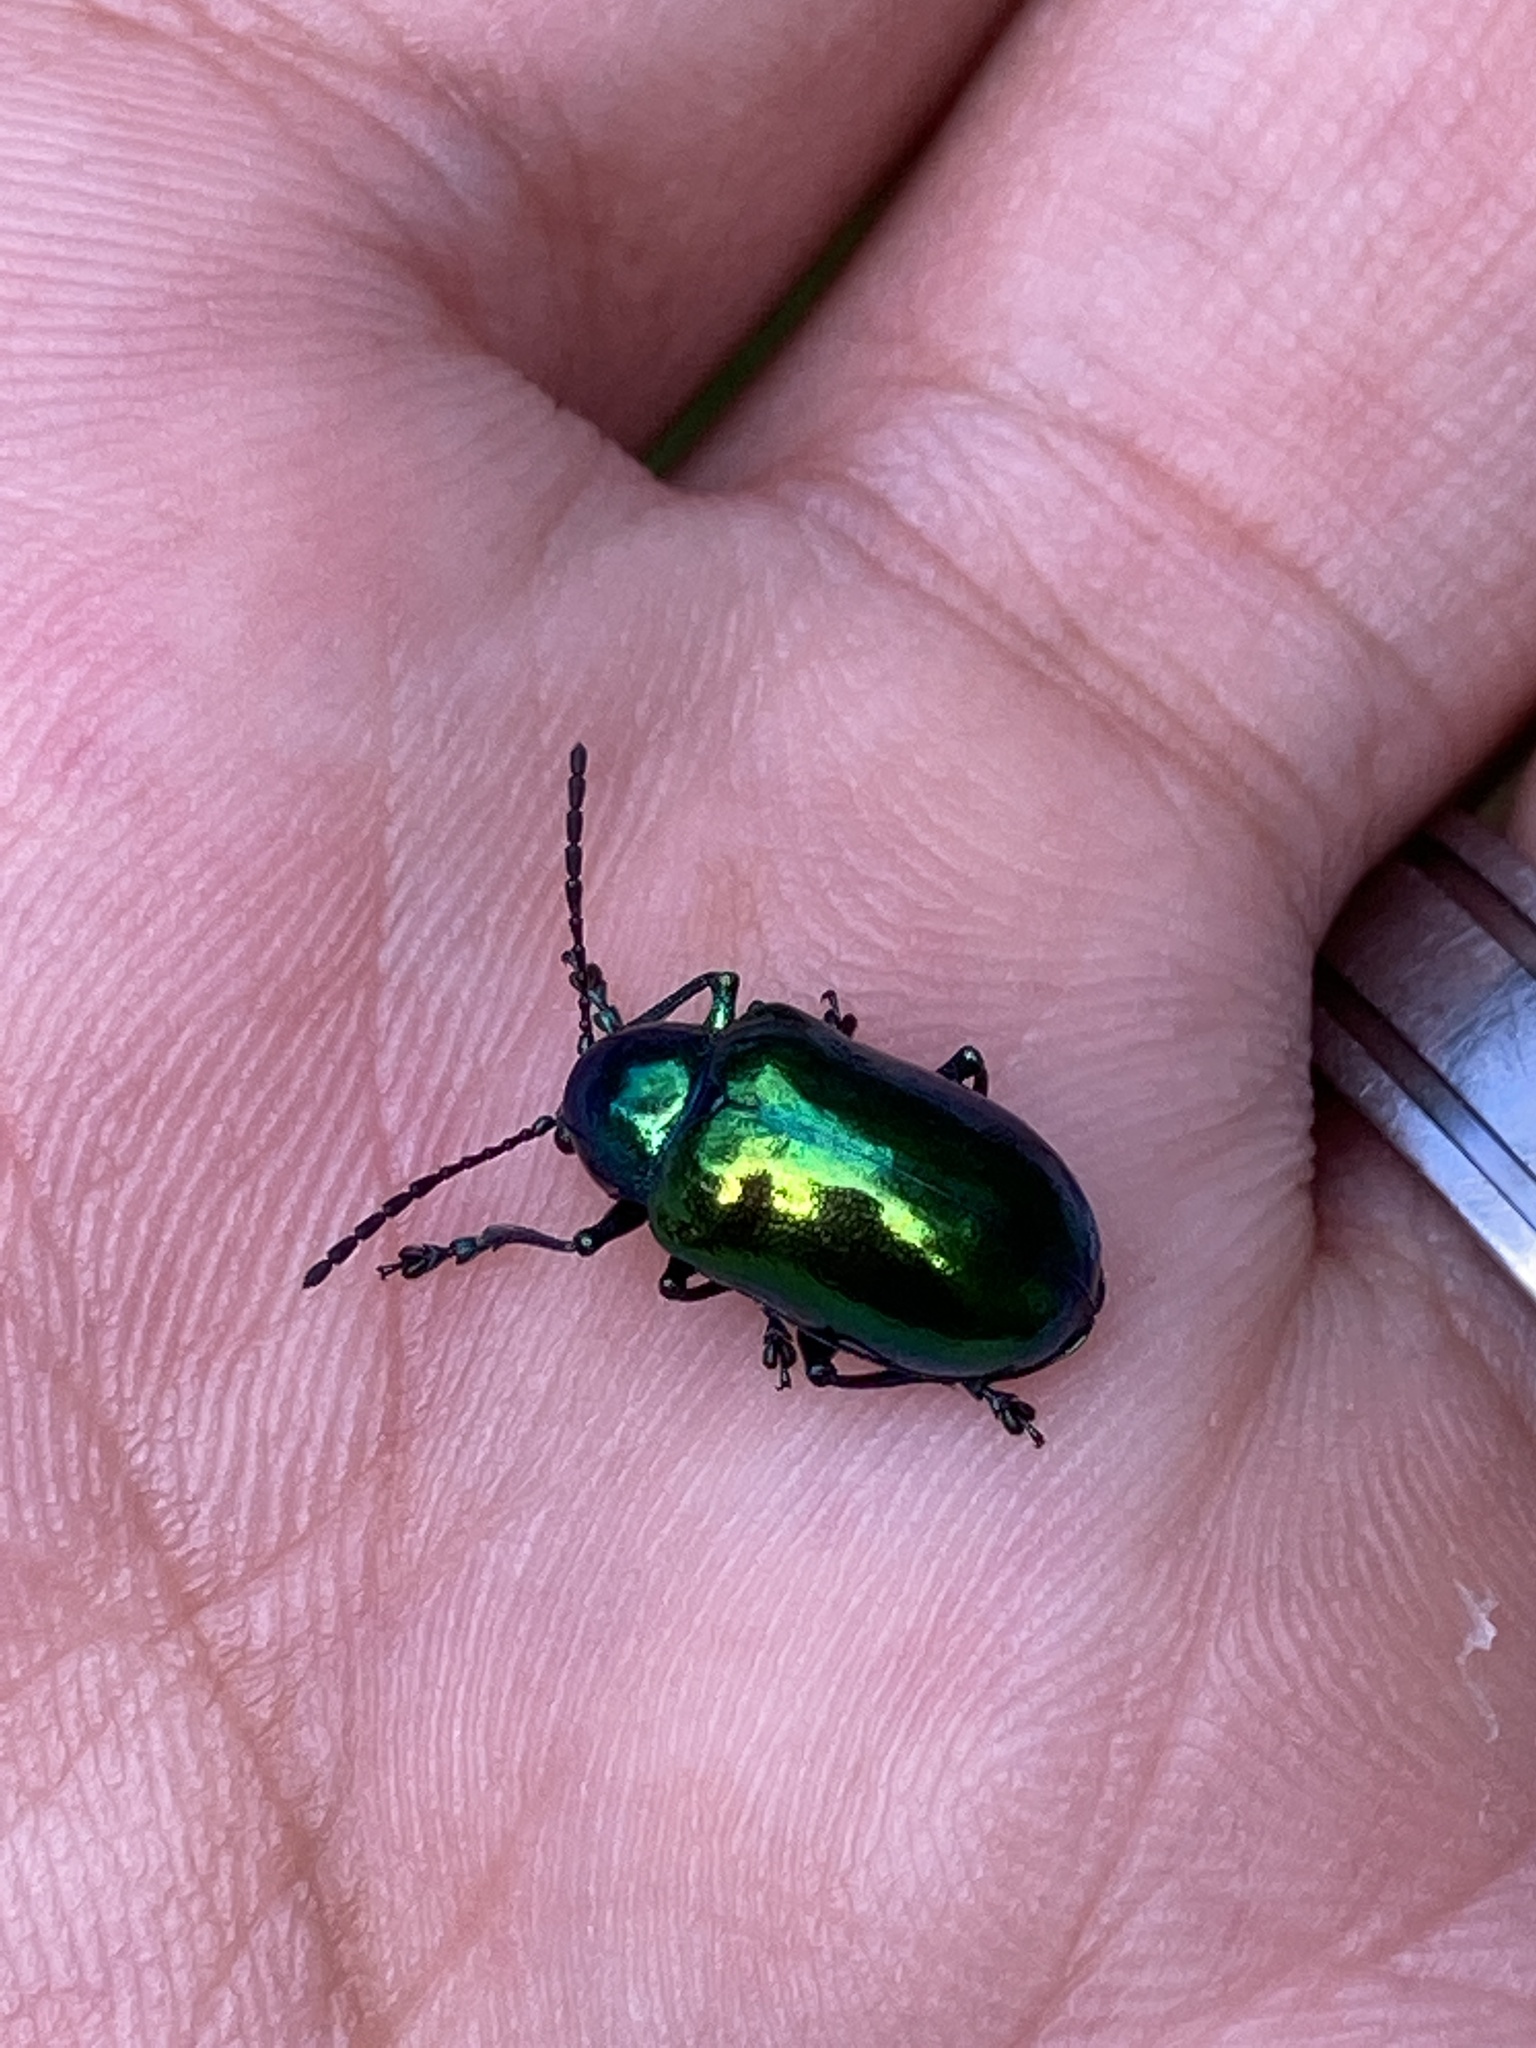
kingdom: Animalia
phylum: Arthropoda
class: Insecta
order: Coleoptera
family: Chrysomelidae
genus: Chrysochus
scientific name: Chrysochus auratus
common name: Dogbane leaf beetle
